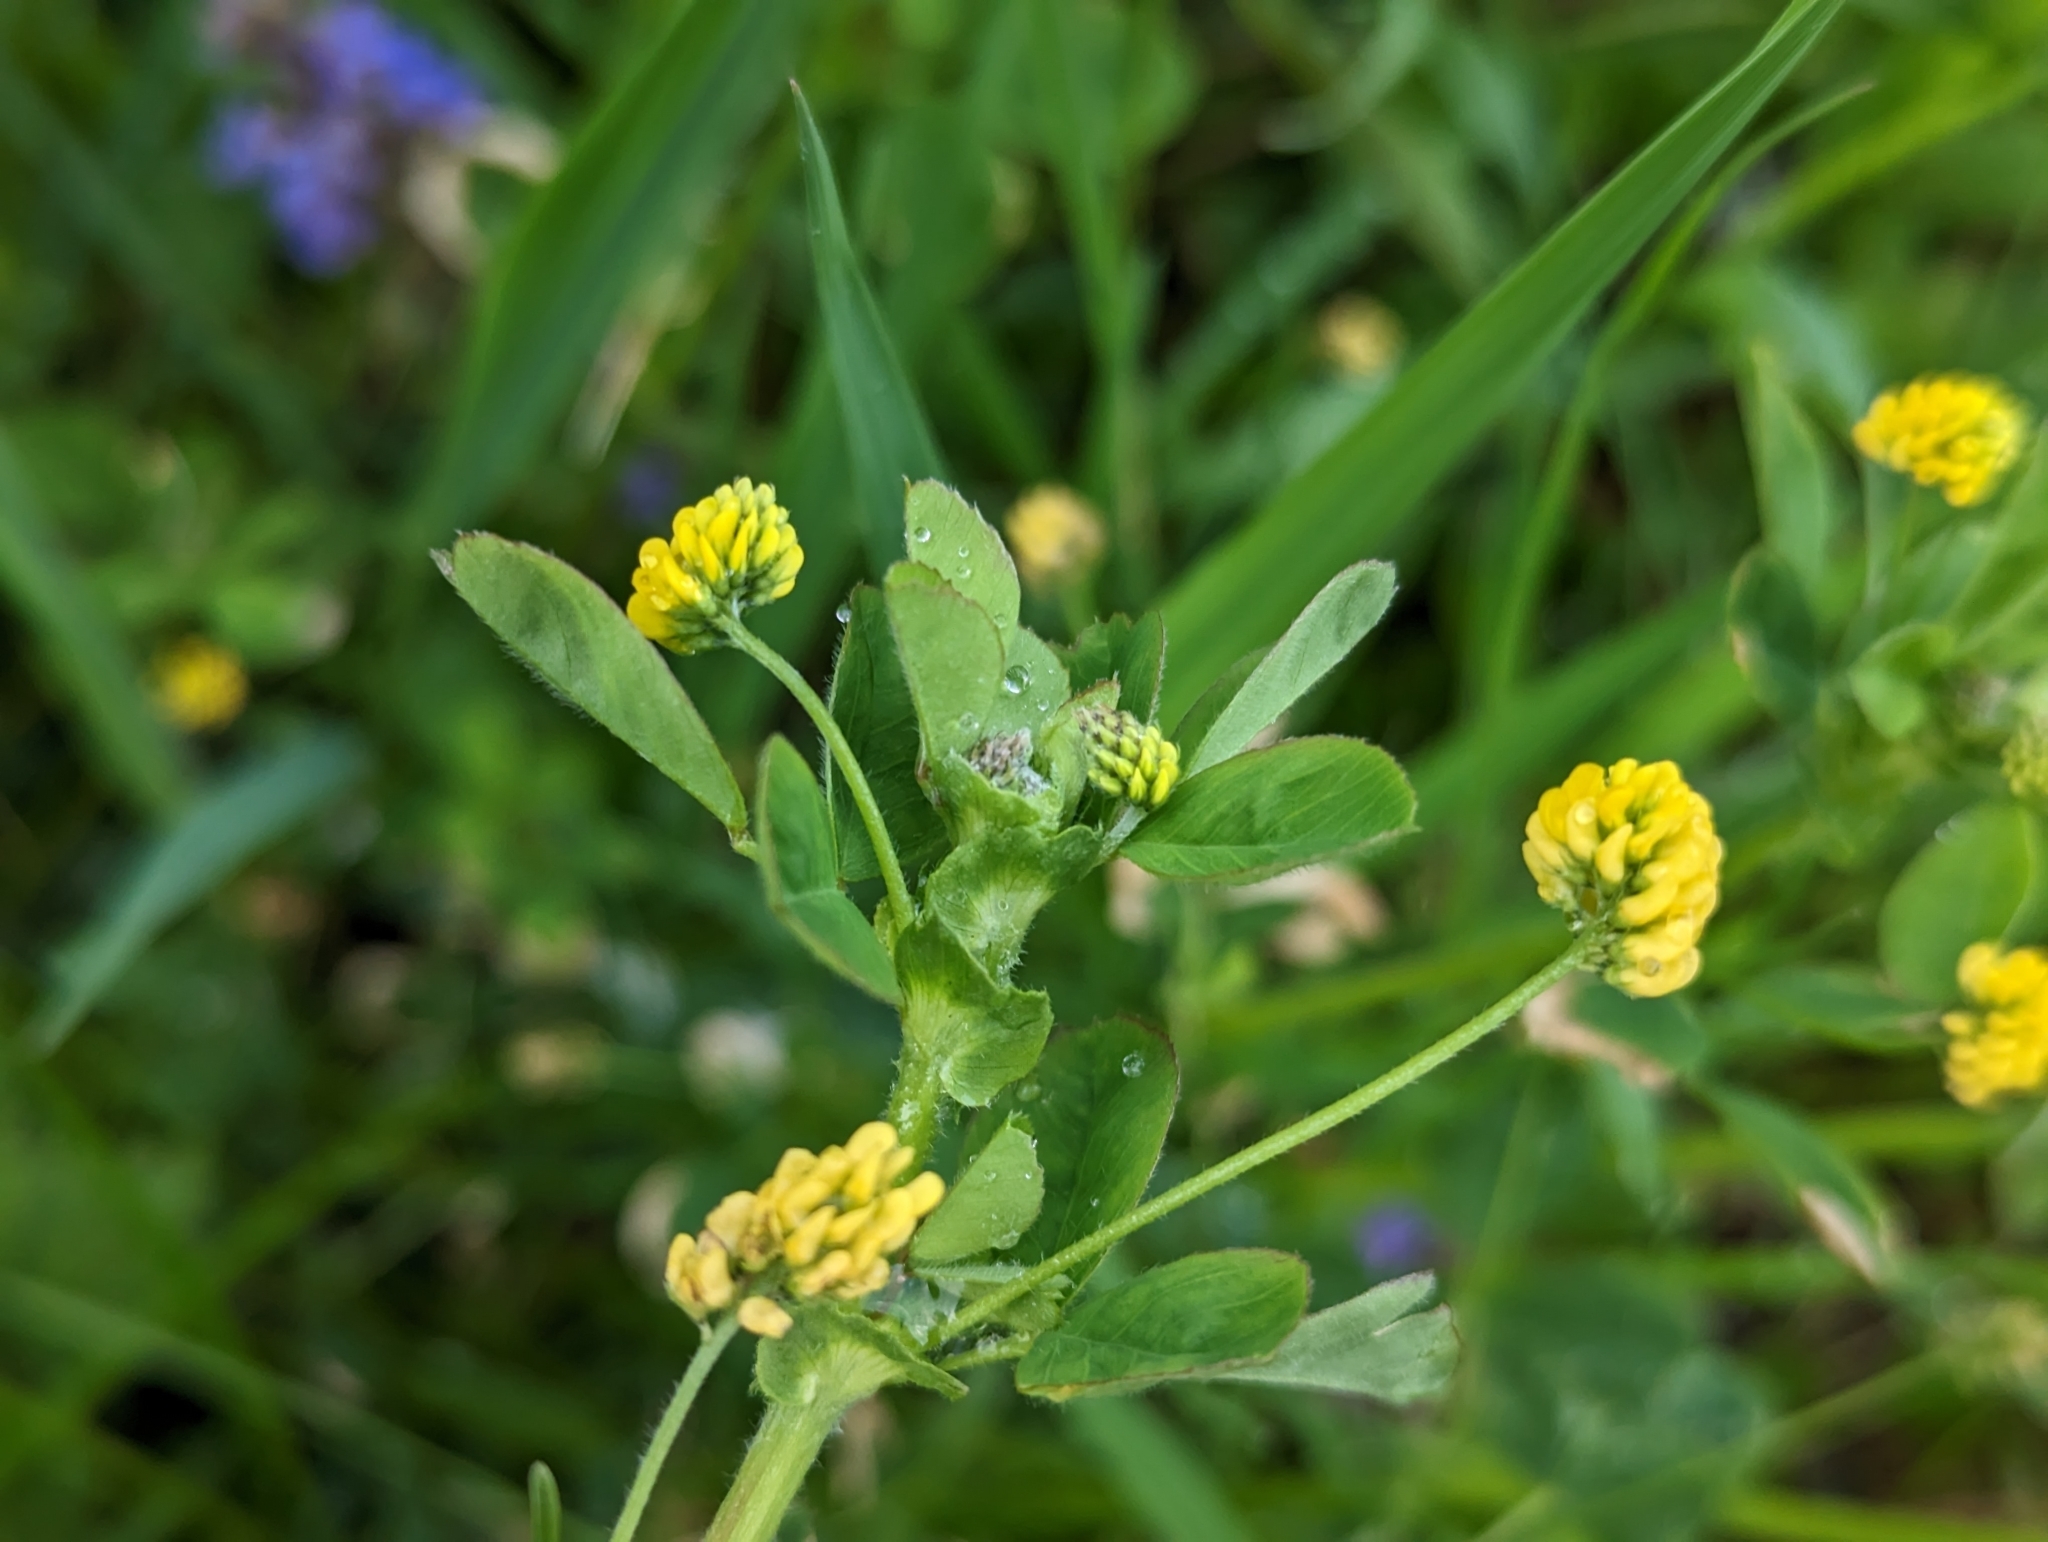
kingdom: Plantae
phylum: Tracheophyta
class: Magnoliopsida
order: Fabales
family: Fabaceae
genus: Medicago
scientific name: Medicago lupulina
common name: Black medick
